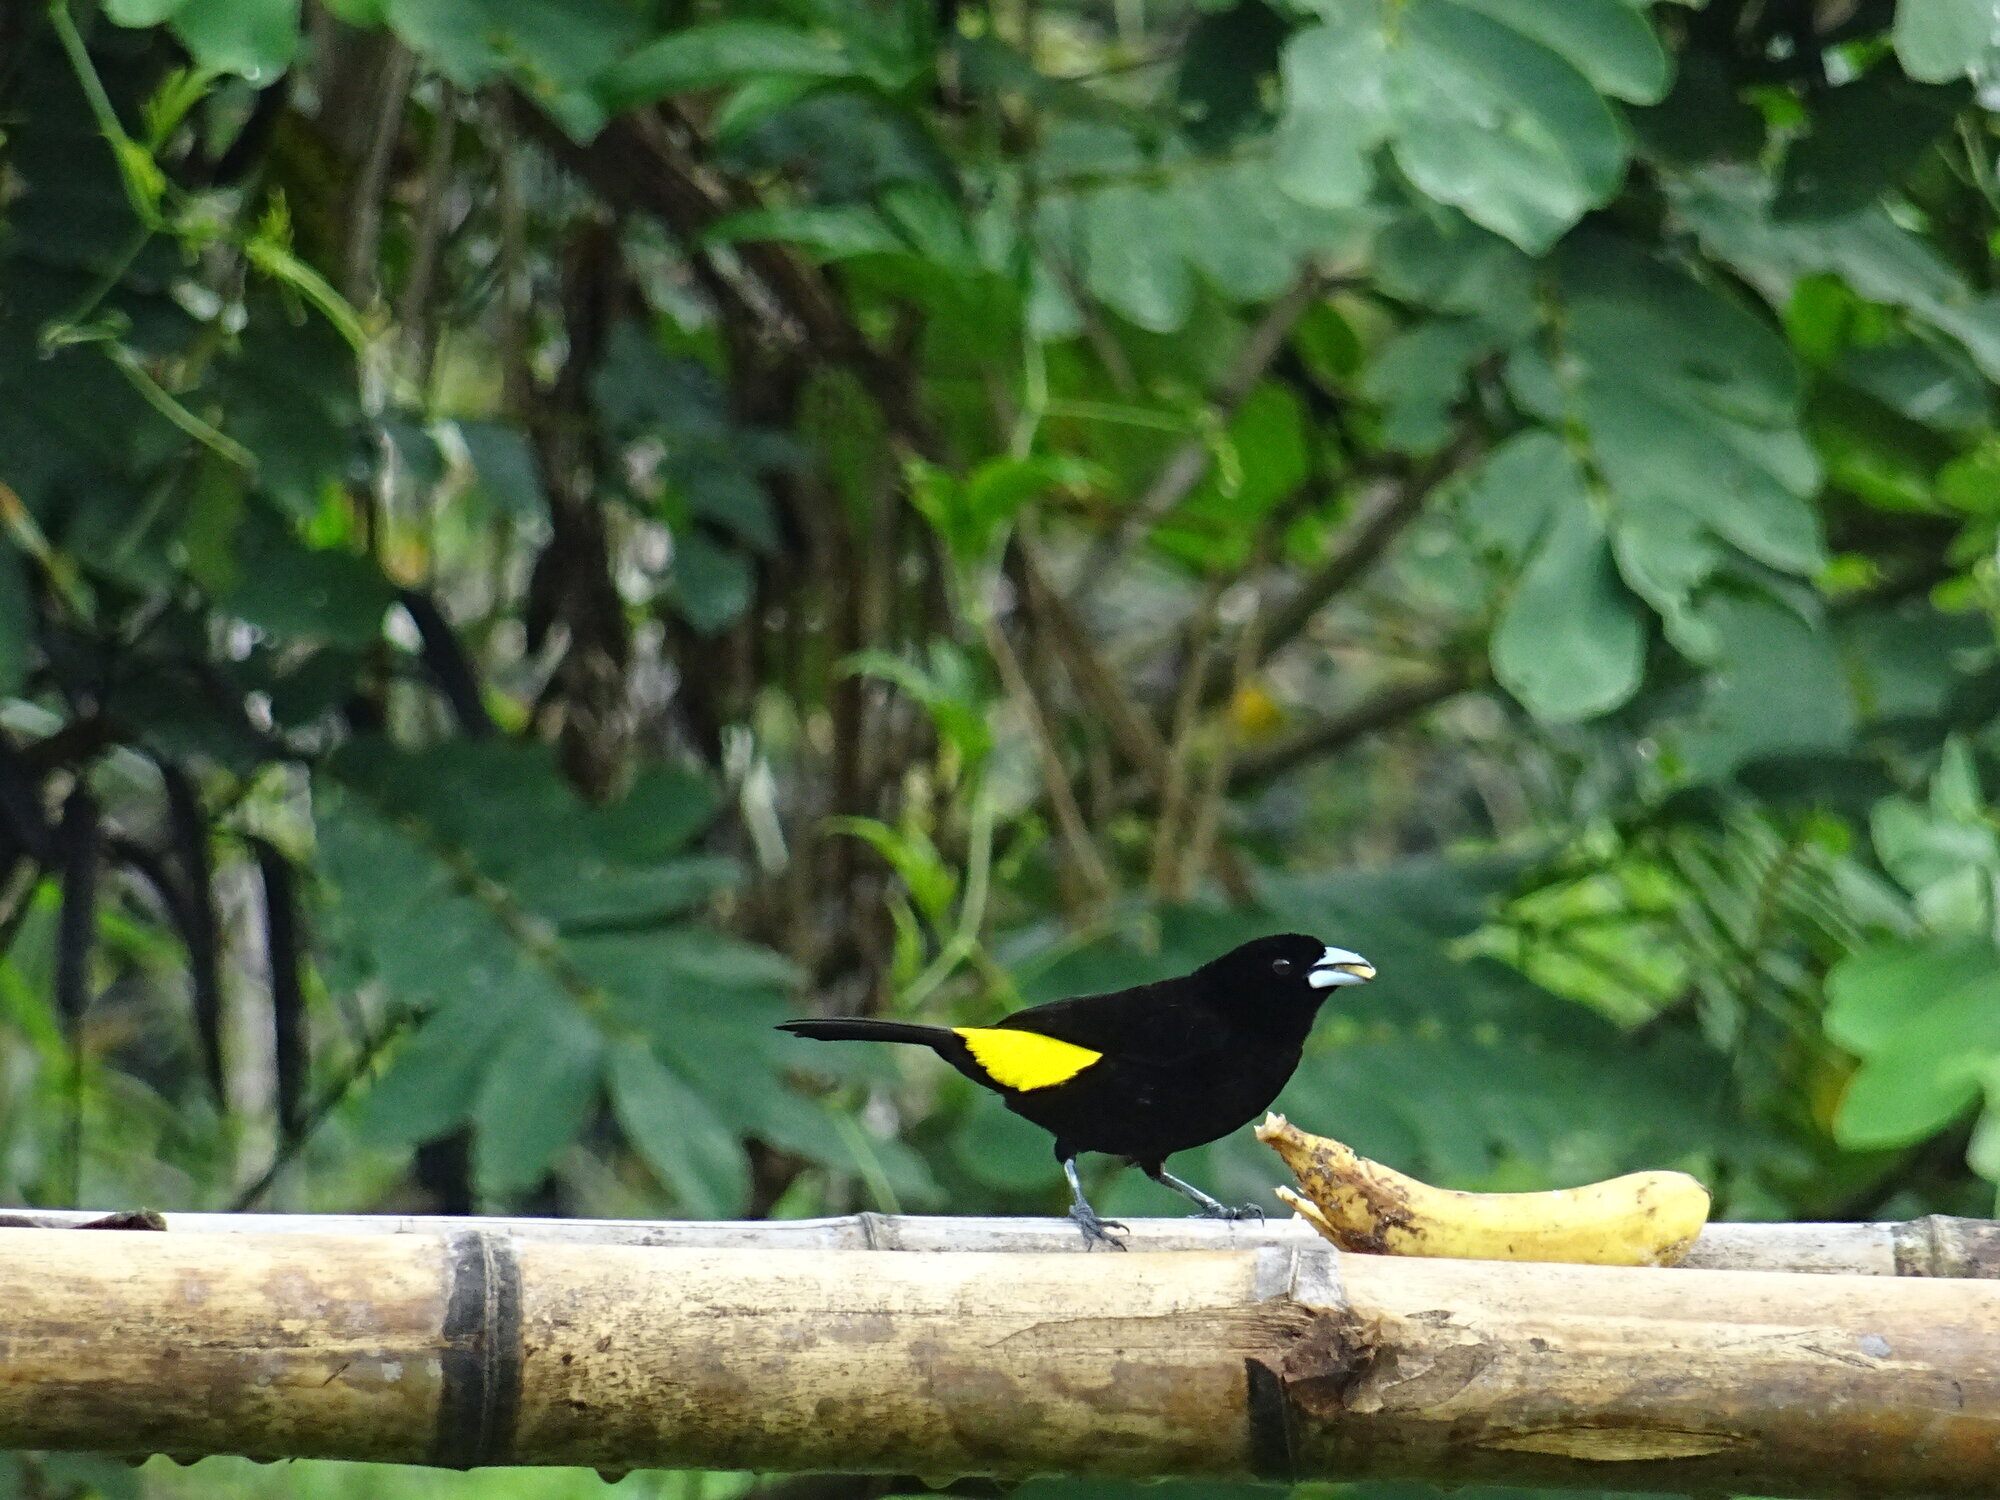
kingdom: Animalia
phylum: Chordata
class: Aves
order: Passeriformes
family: Thraupidae
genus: Ramphocelus
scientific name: Ramphocelus icteronotus
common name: Lemon-rumped tanager
